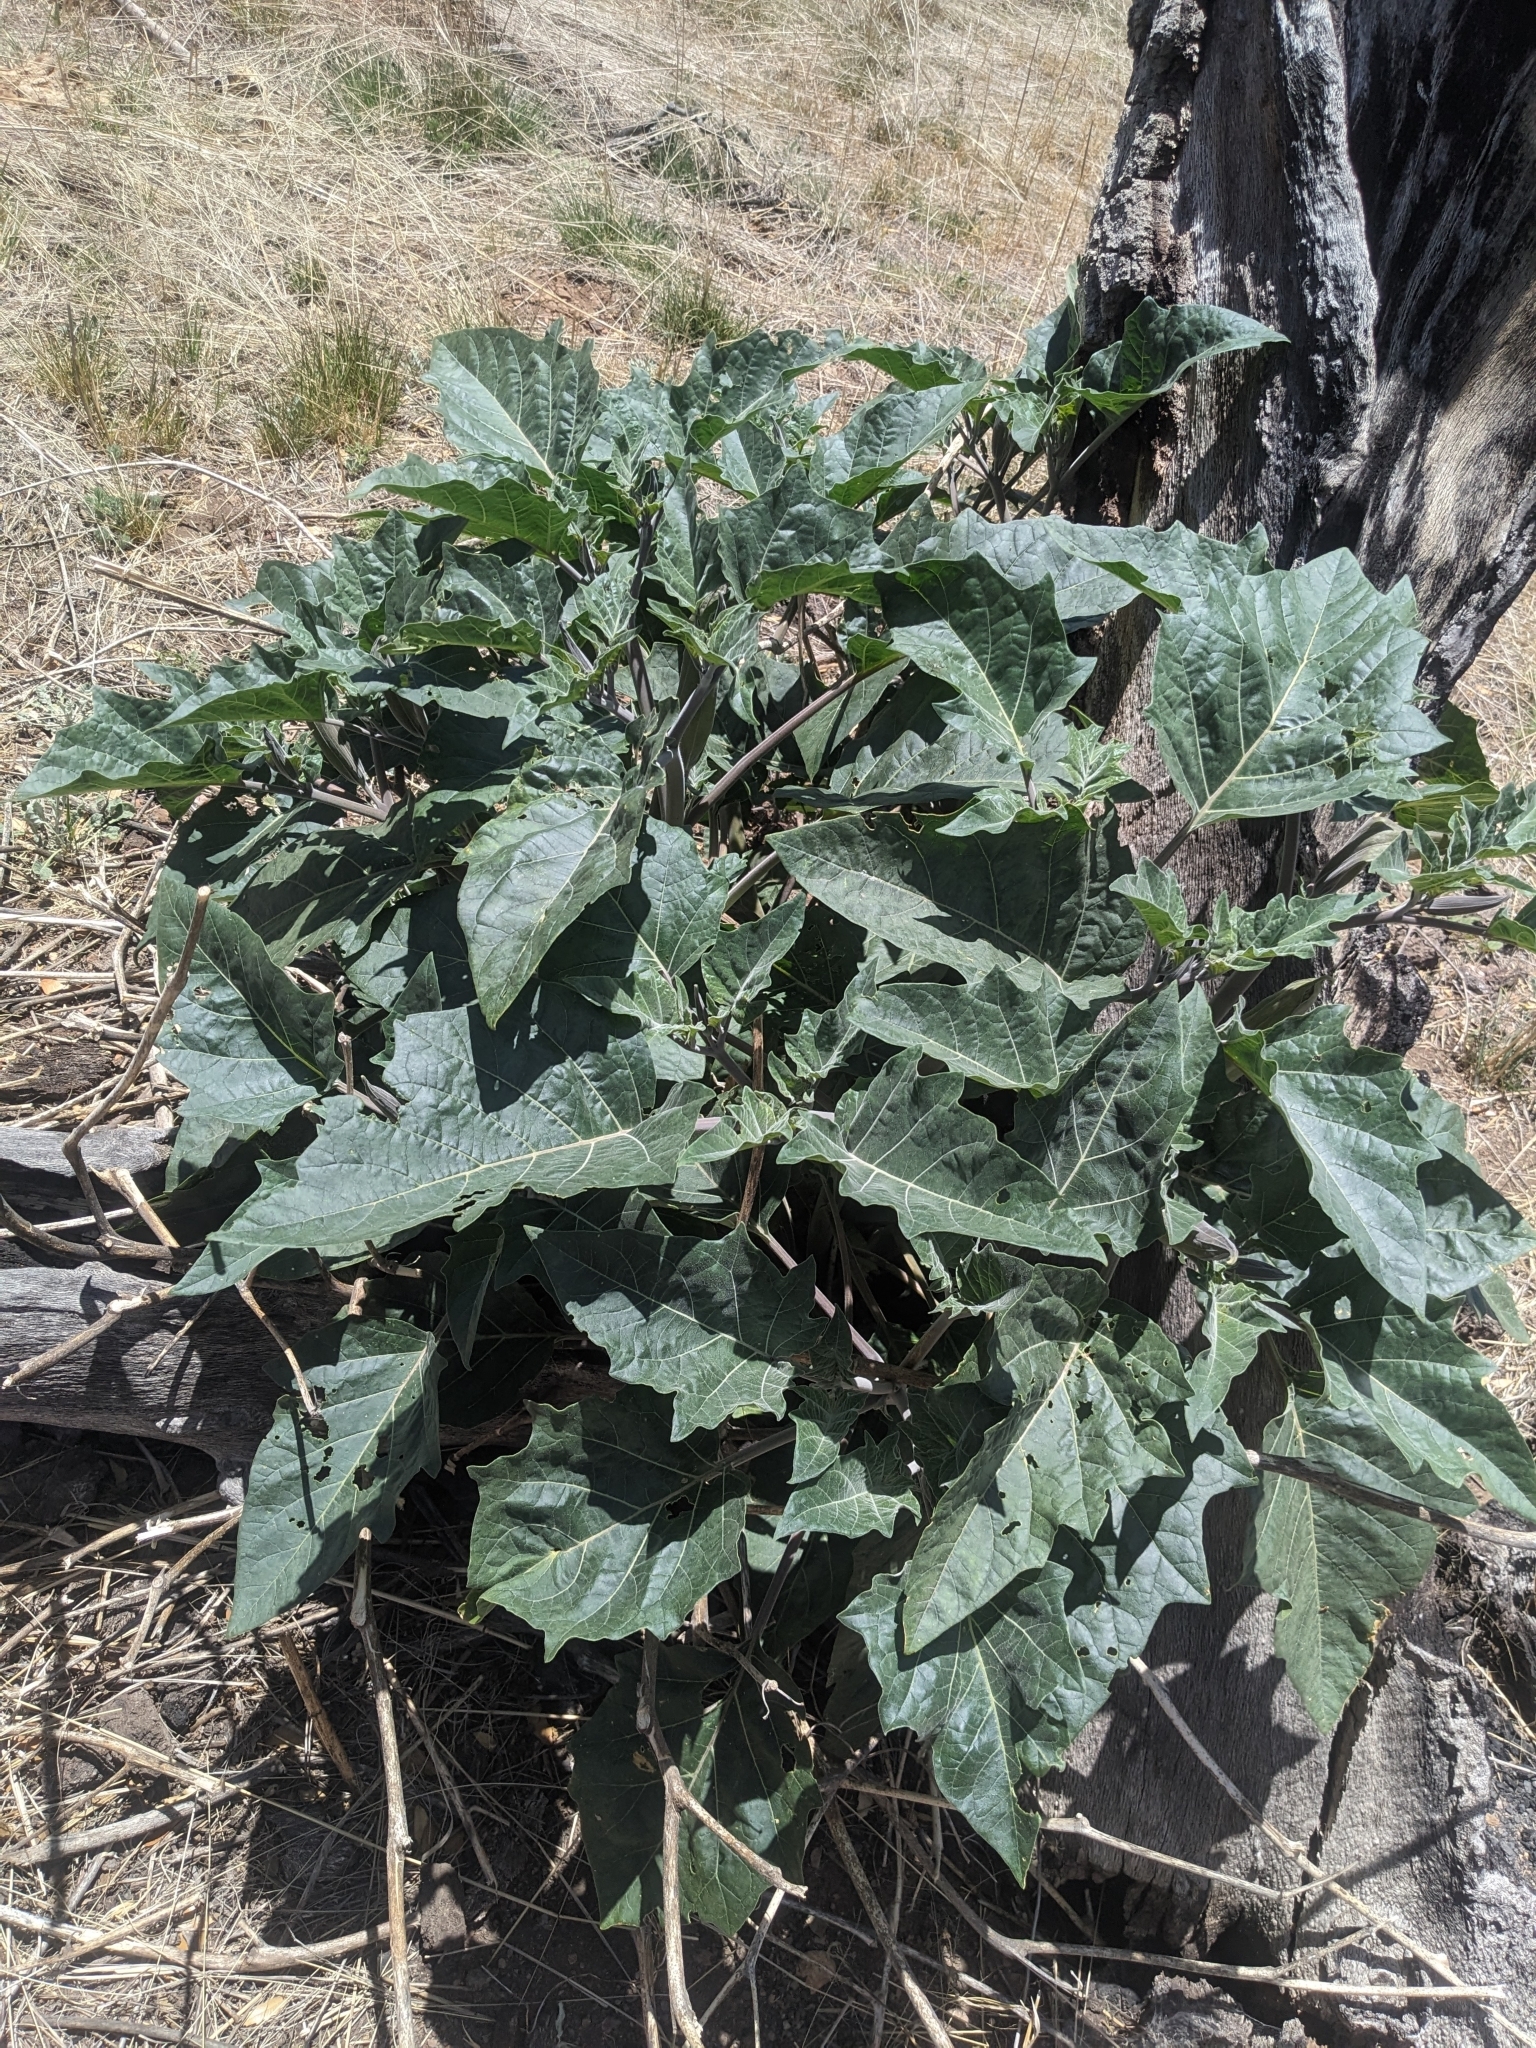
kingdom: Plantae
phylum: Tracheophyta
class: Magnoliopsida
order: Solanales
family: Solanaceae
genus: Datura
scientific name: Datura wrightii
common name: Sacred thorn-apple
